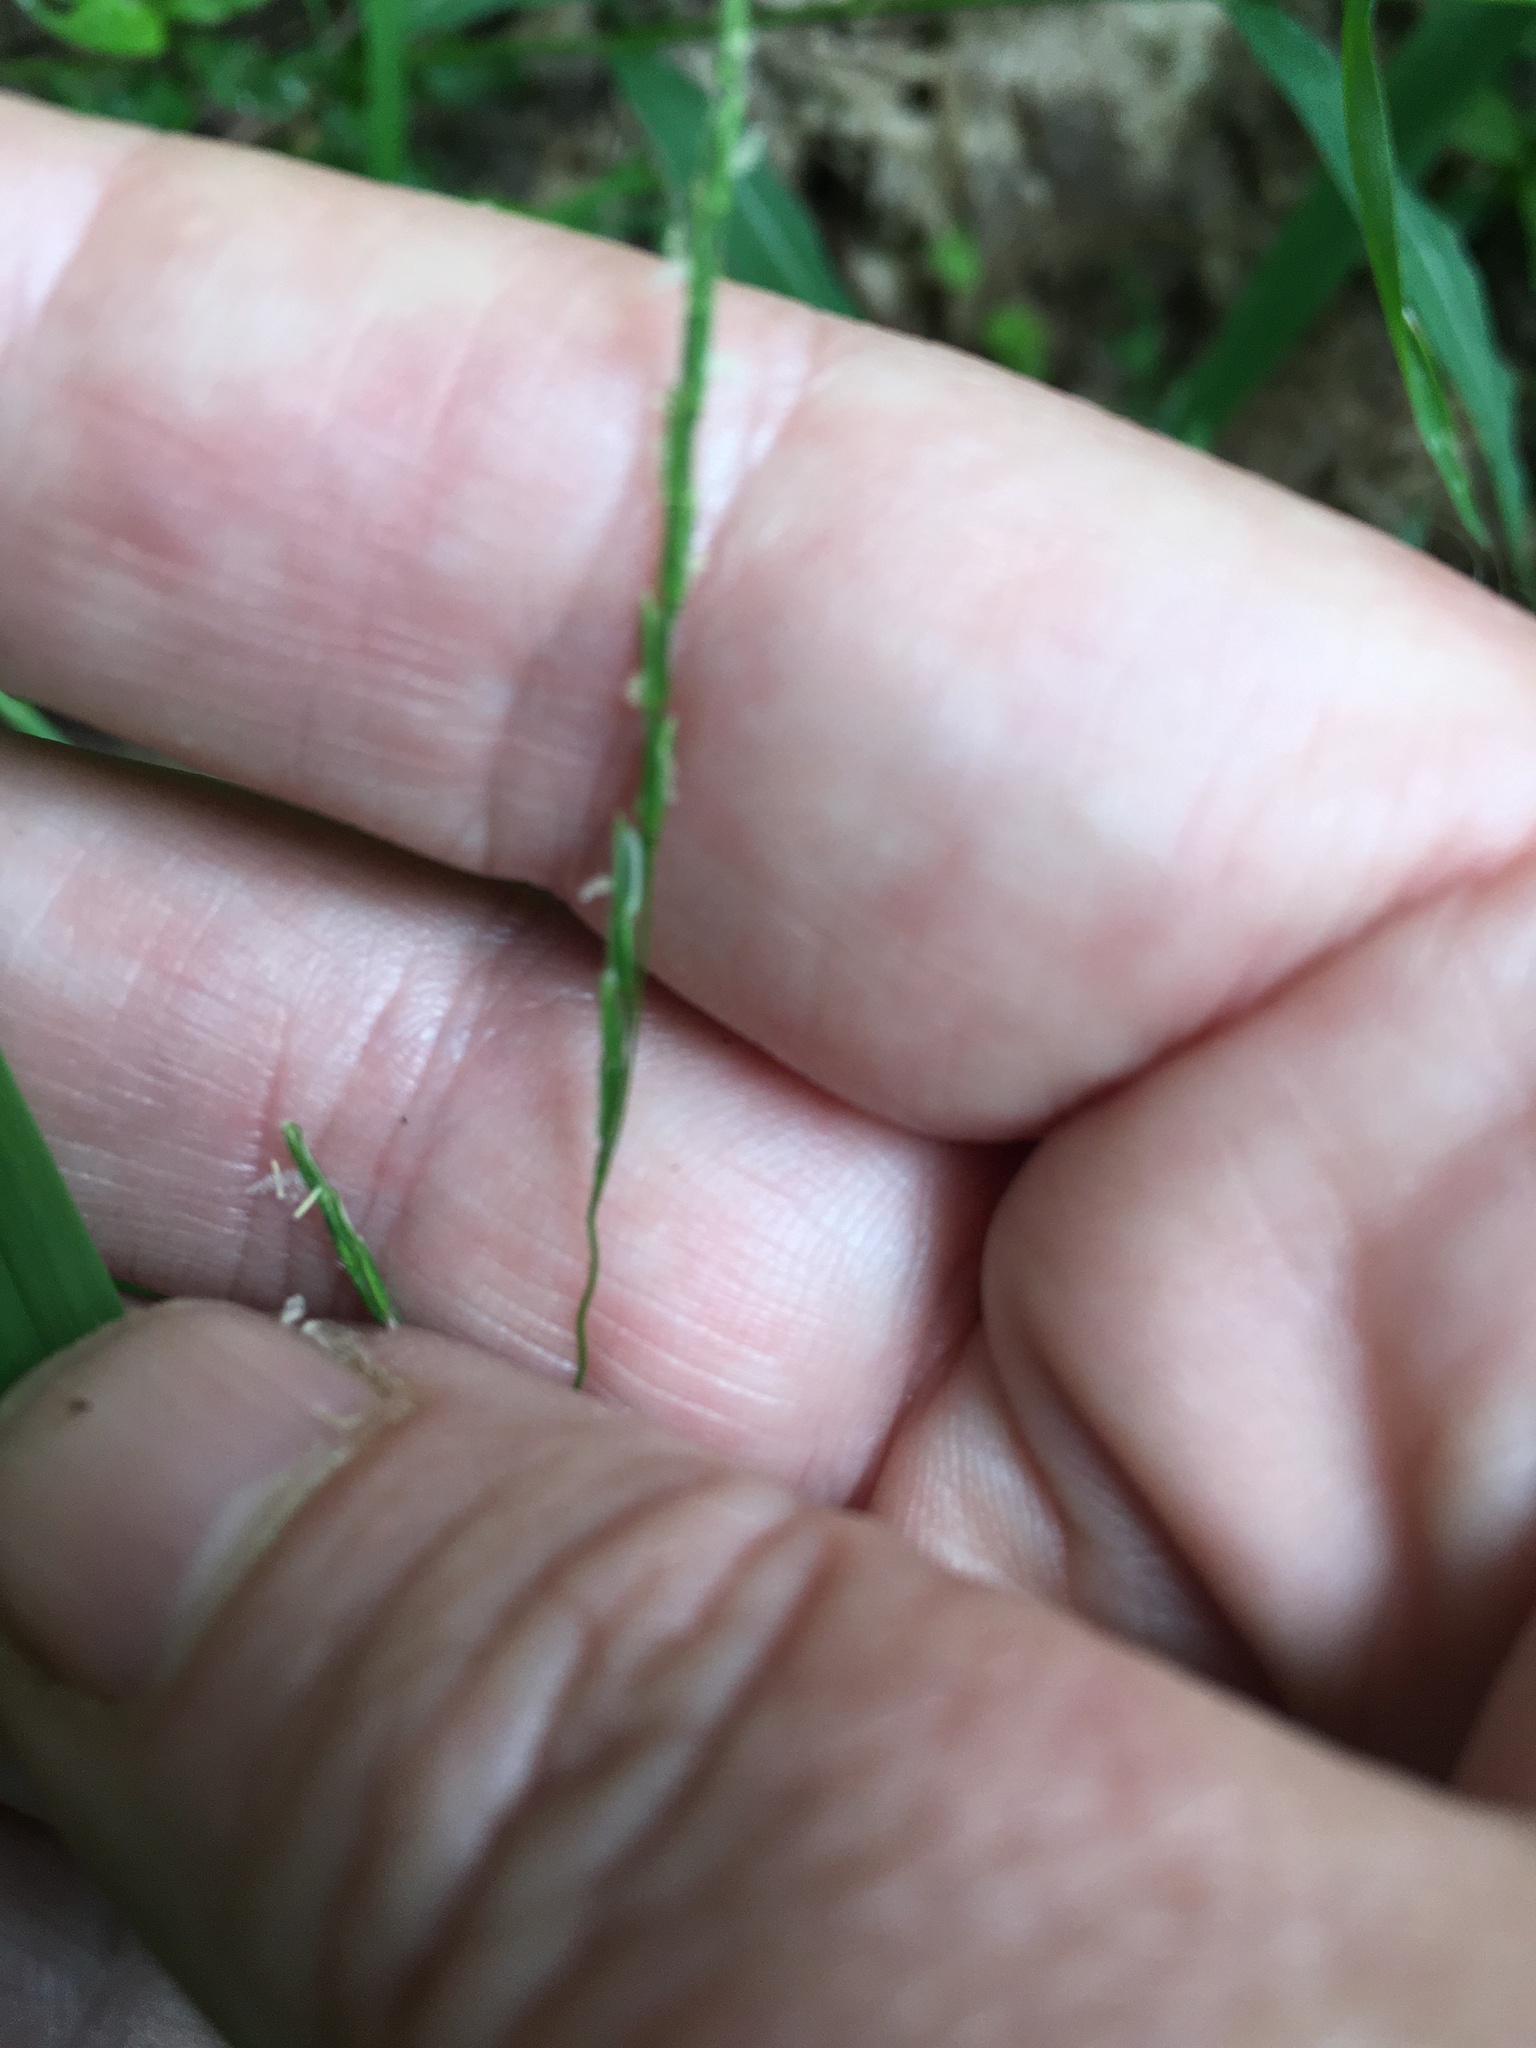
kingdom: Plantae
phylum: Tracheophyta
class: Liliopsida
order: Poales
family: Poaceae
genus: Leersia
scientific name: Leersia virginica
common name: White cutgrass
